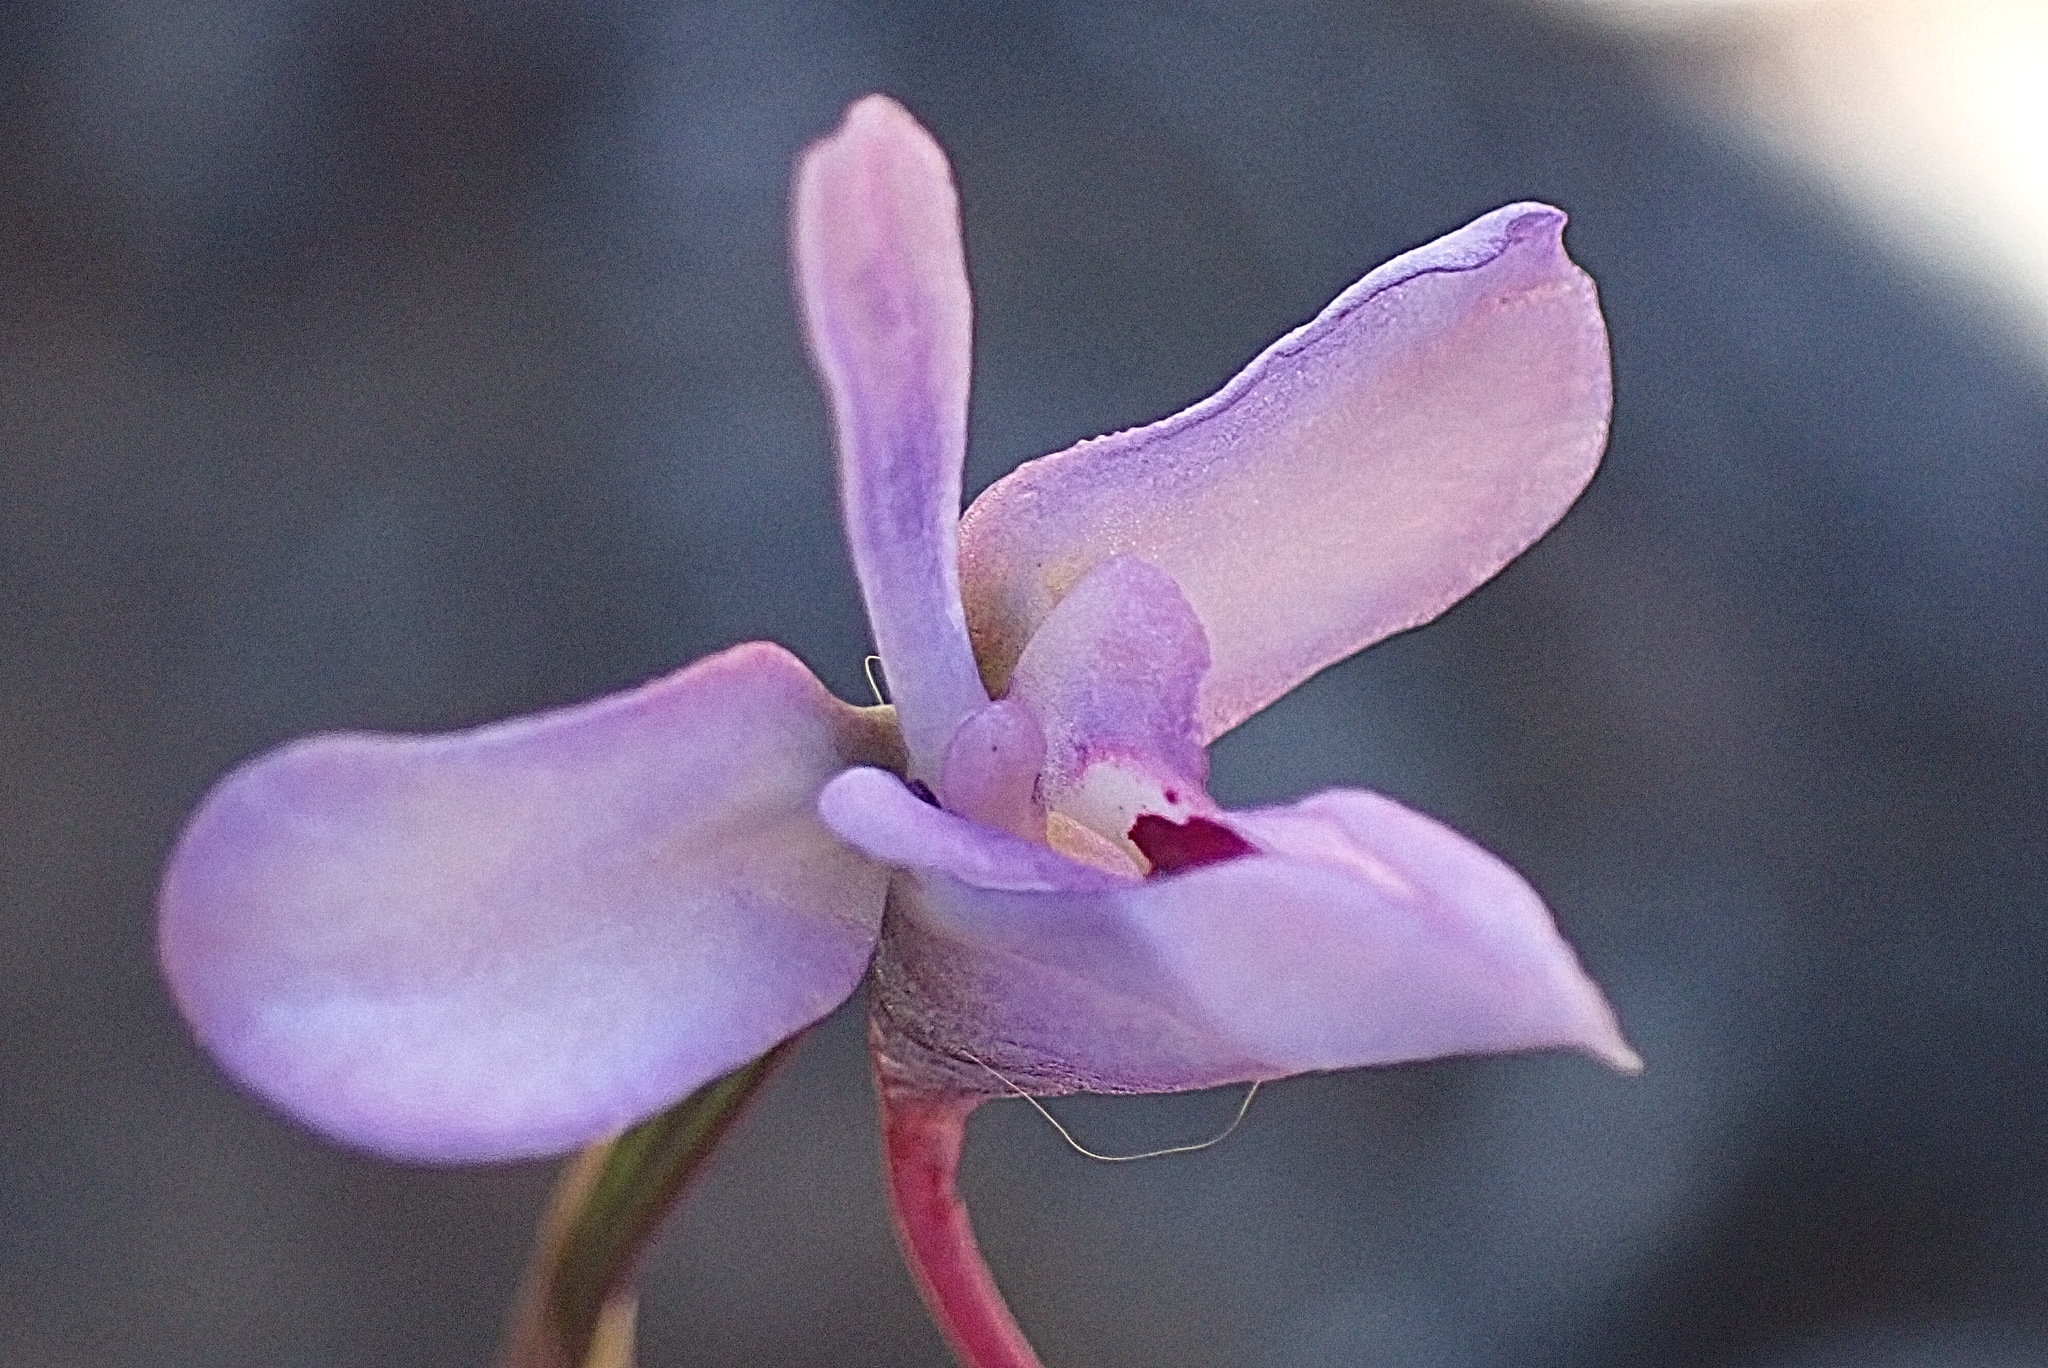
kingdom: Plantae
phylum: Tracheophyta
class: Liliopsida
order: Asparagales
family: Orchidaceae
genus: Disa
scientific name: Disa arida
